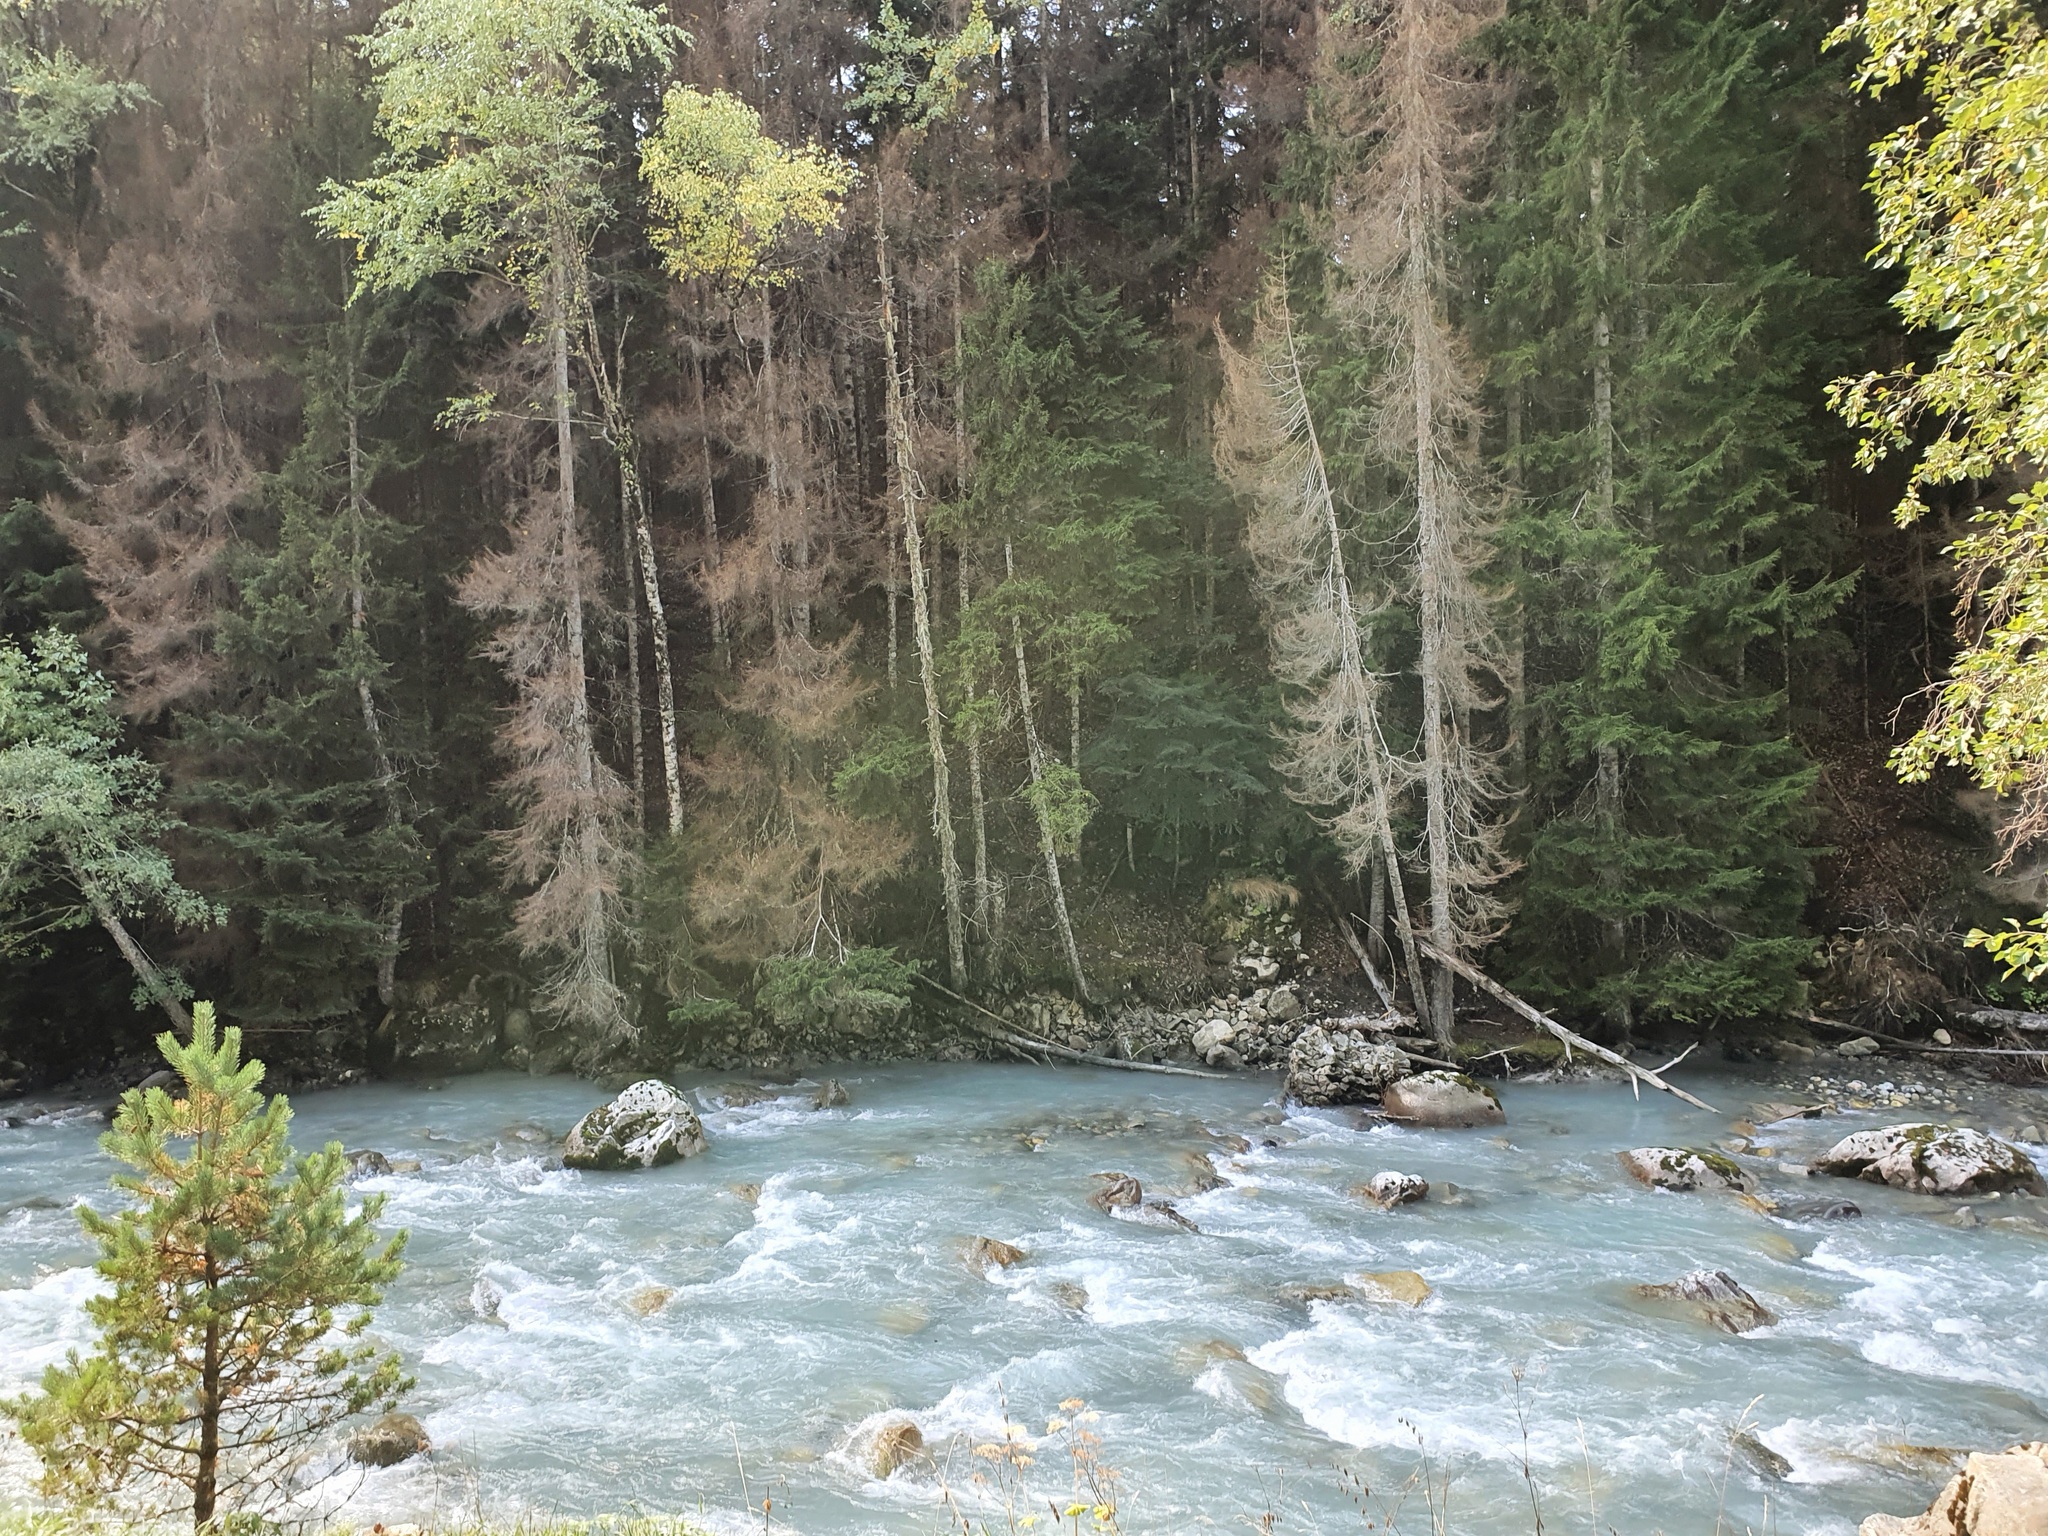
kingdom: Plantae
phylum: Tracheophyta
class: Pinopsida
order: Pinales
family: Pinaceae
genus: Pinus
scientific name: Pinus sylvestris
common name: Scots pine
